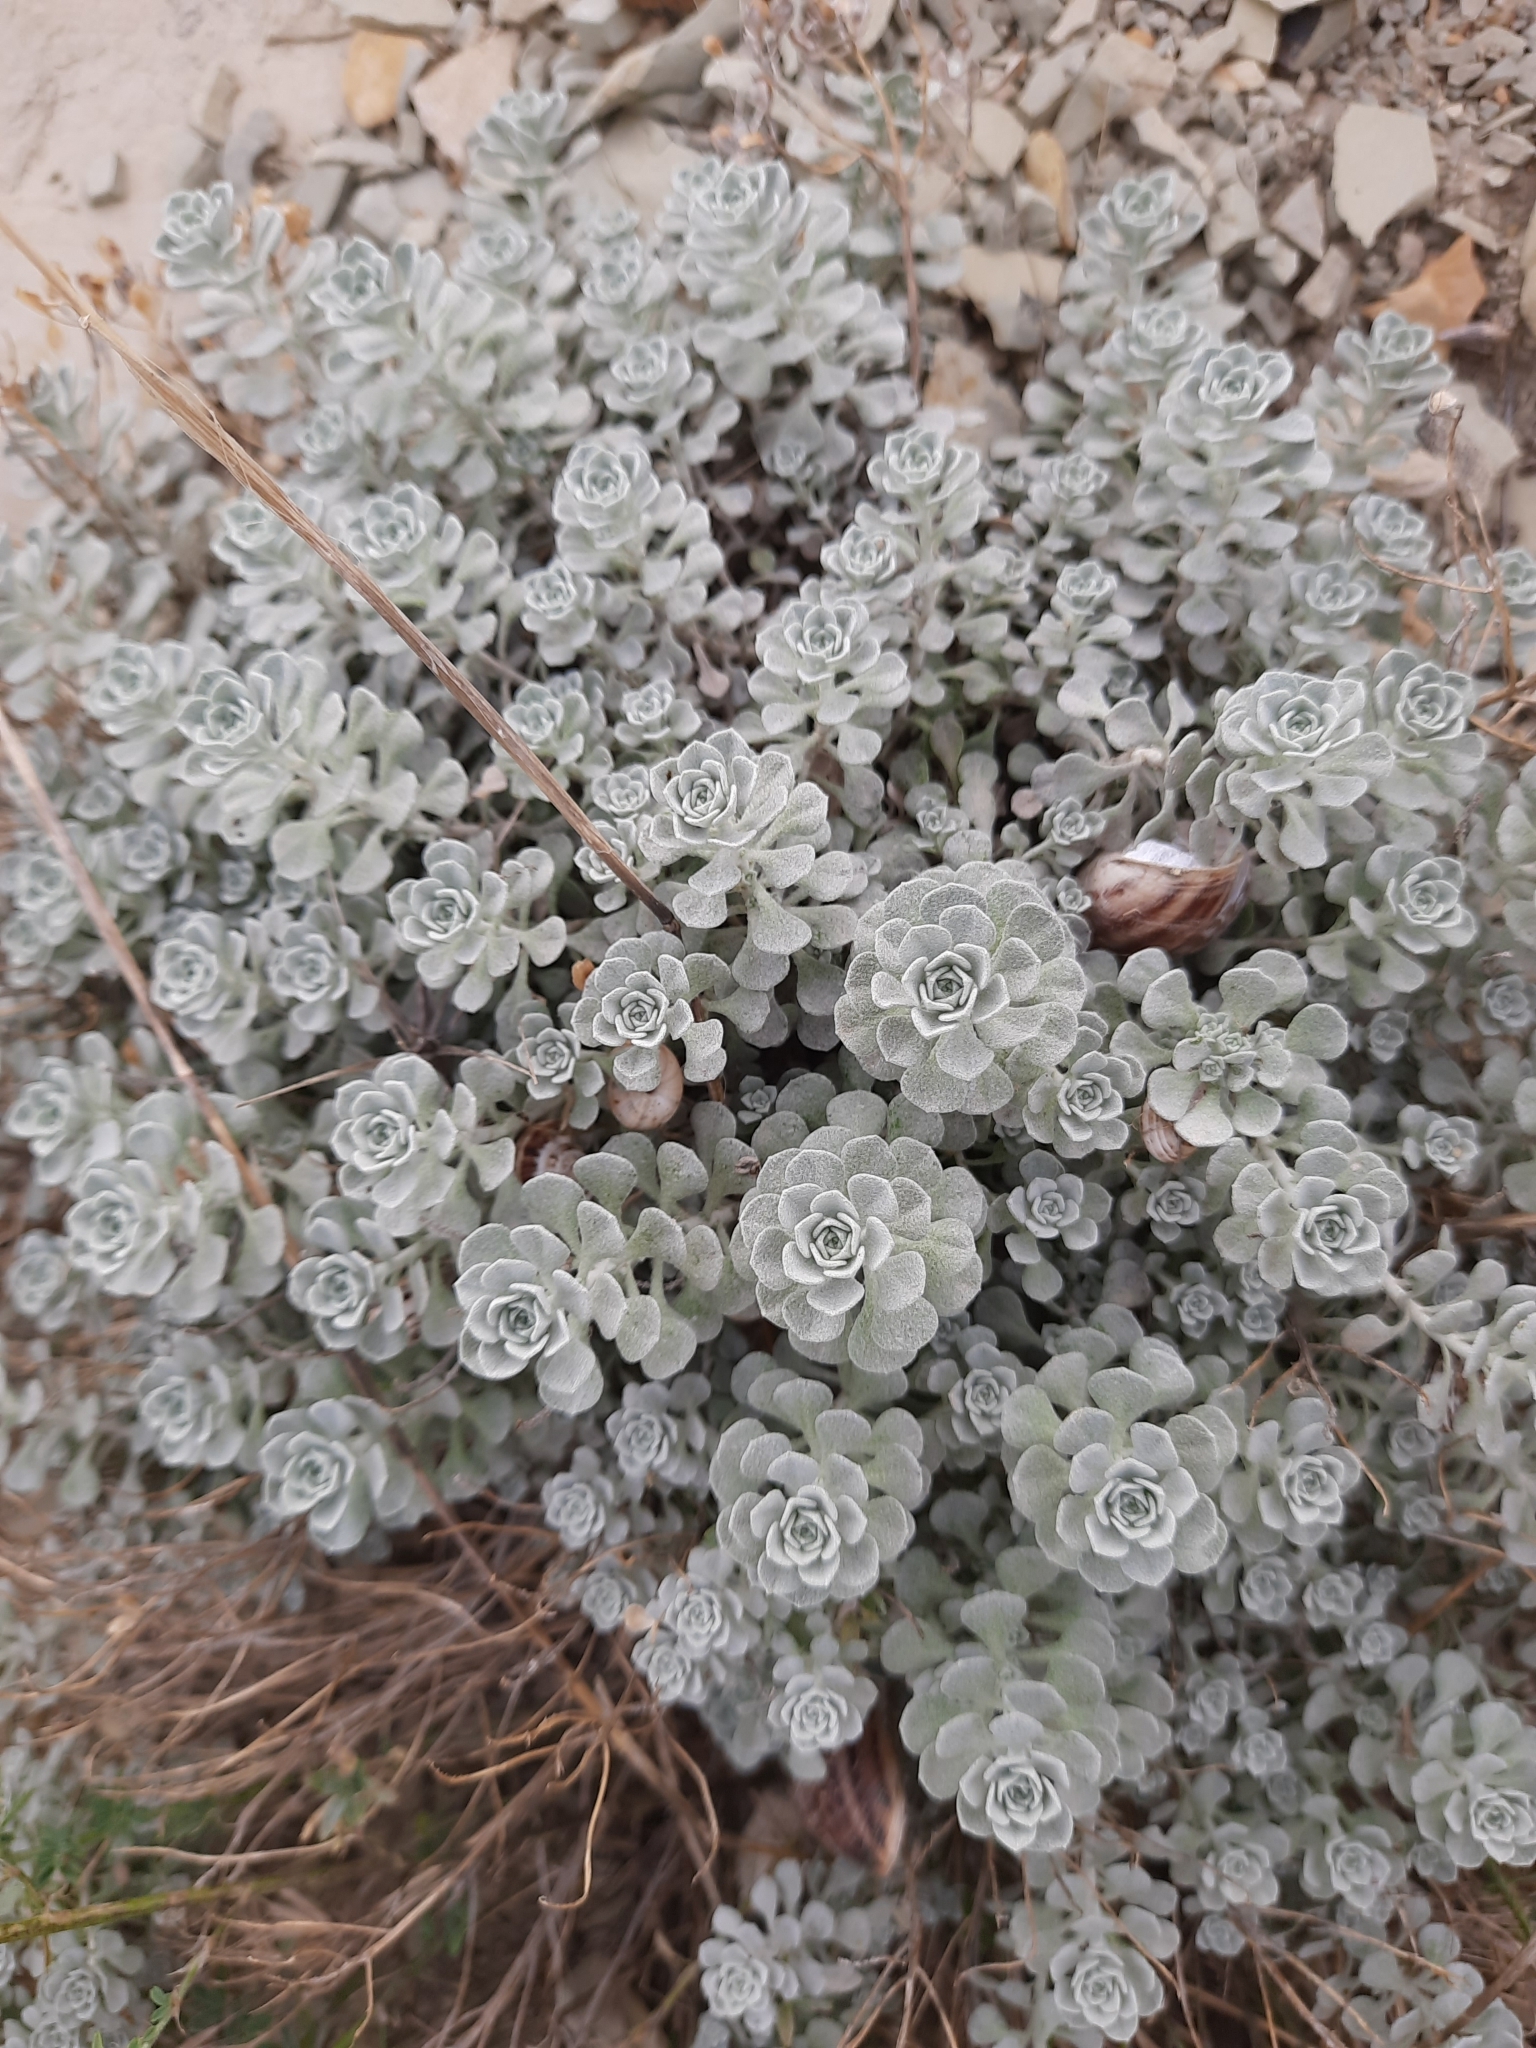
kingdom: Plantae
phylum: Tracheophyta
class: Magnoliopsida
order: Brassicales
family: Brassicaceae
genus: Odontarrhena
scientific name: Odontarrhena obtusifolia
